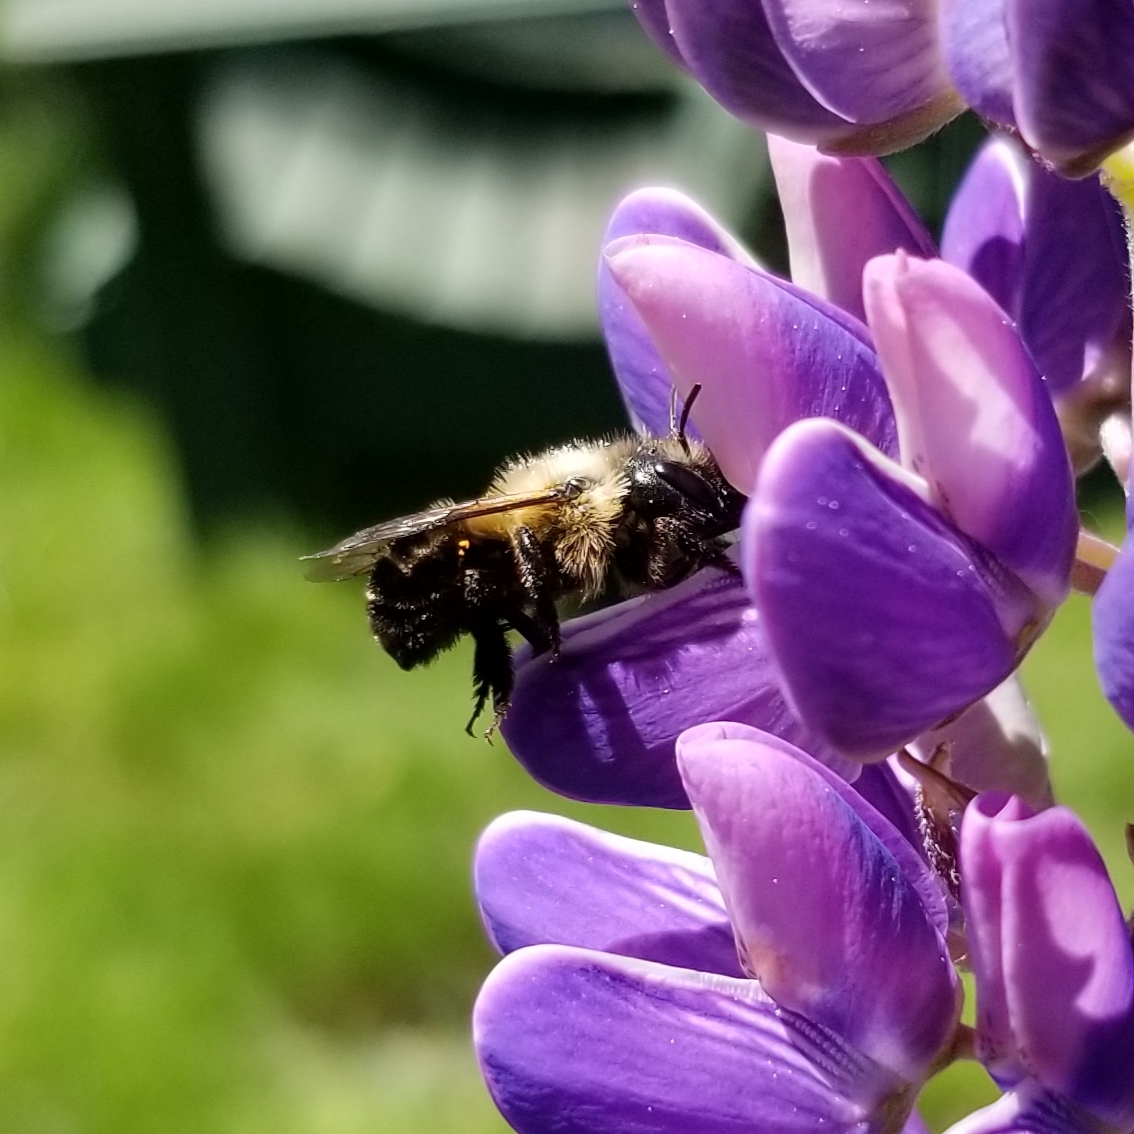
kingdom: Animalia
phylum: Arthropoda
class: Insecta
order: Hymenoptera
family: Megachilidae
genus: Osmia
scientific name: Osmia bucephala
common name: Bufflehead mason bee
